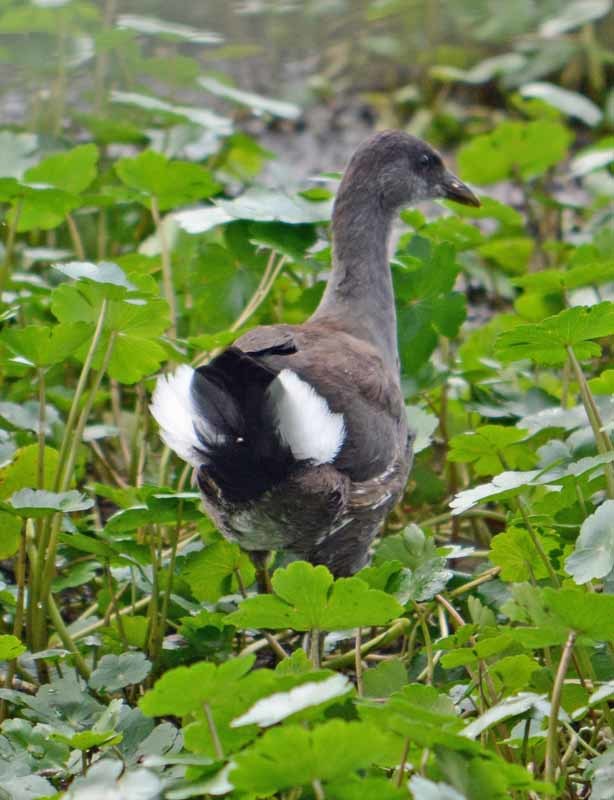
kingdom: Animalia
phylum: Chordata
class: Aves
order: Gruiformes
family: Rallidae
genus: Gallinula
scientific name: Gallinula chloropus
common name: Common moorhen
